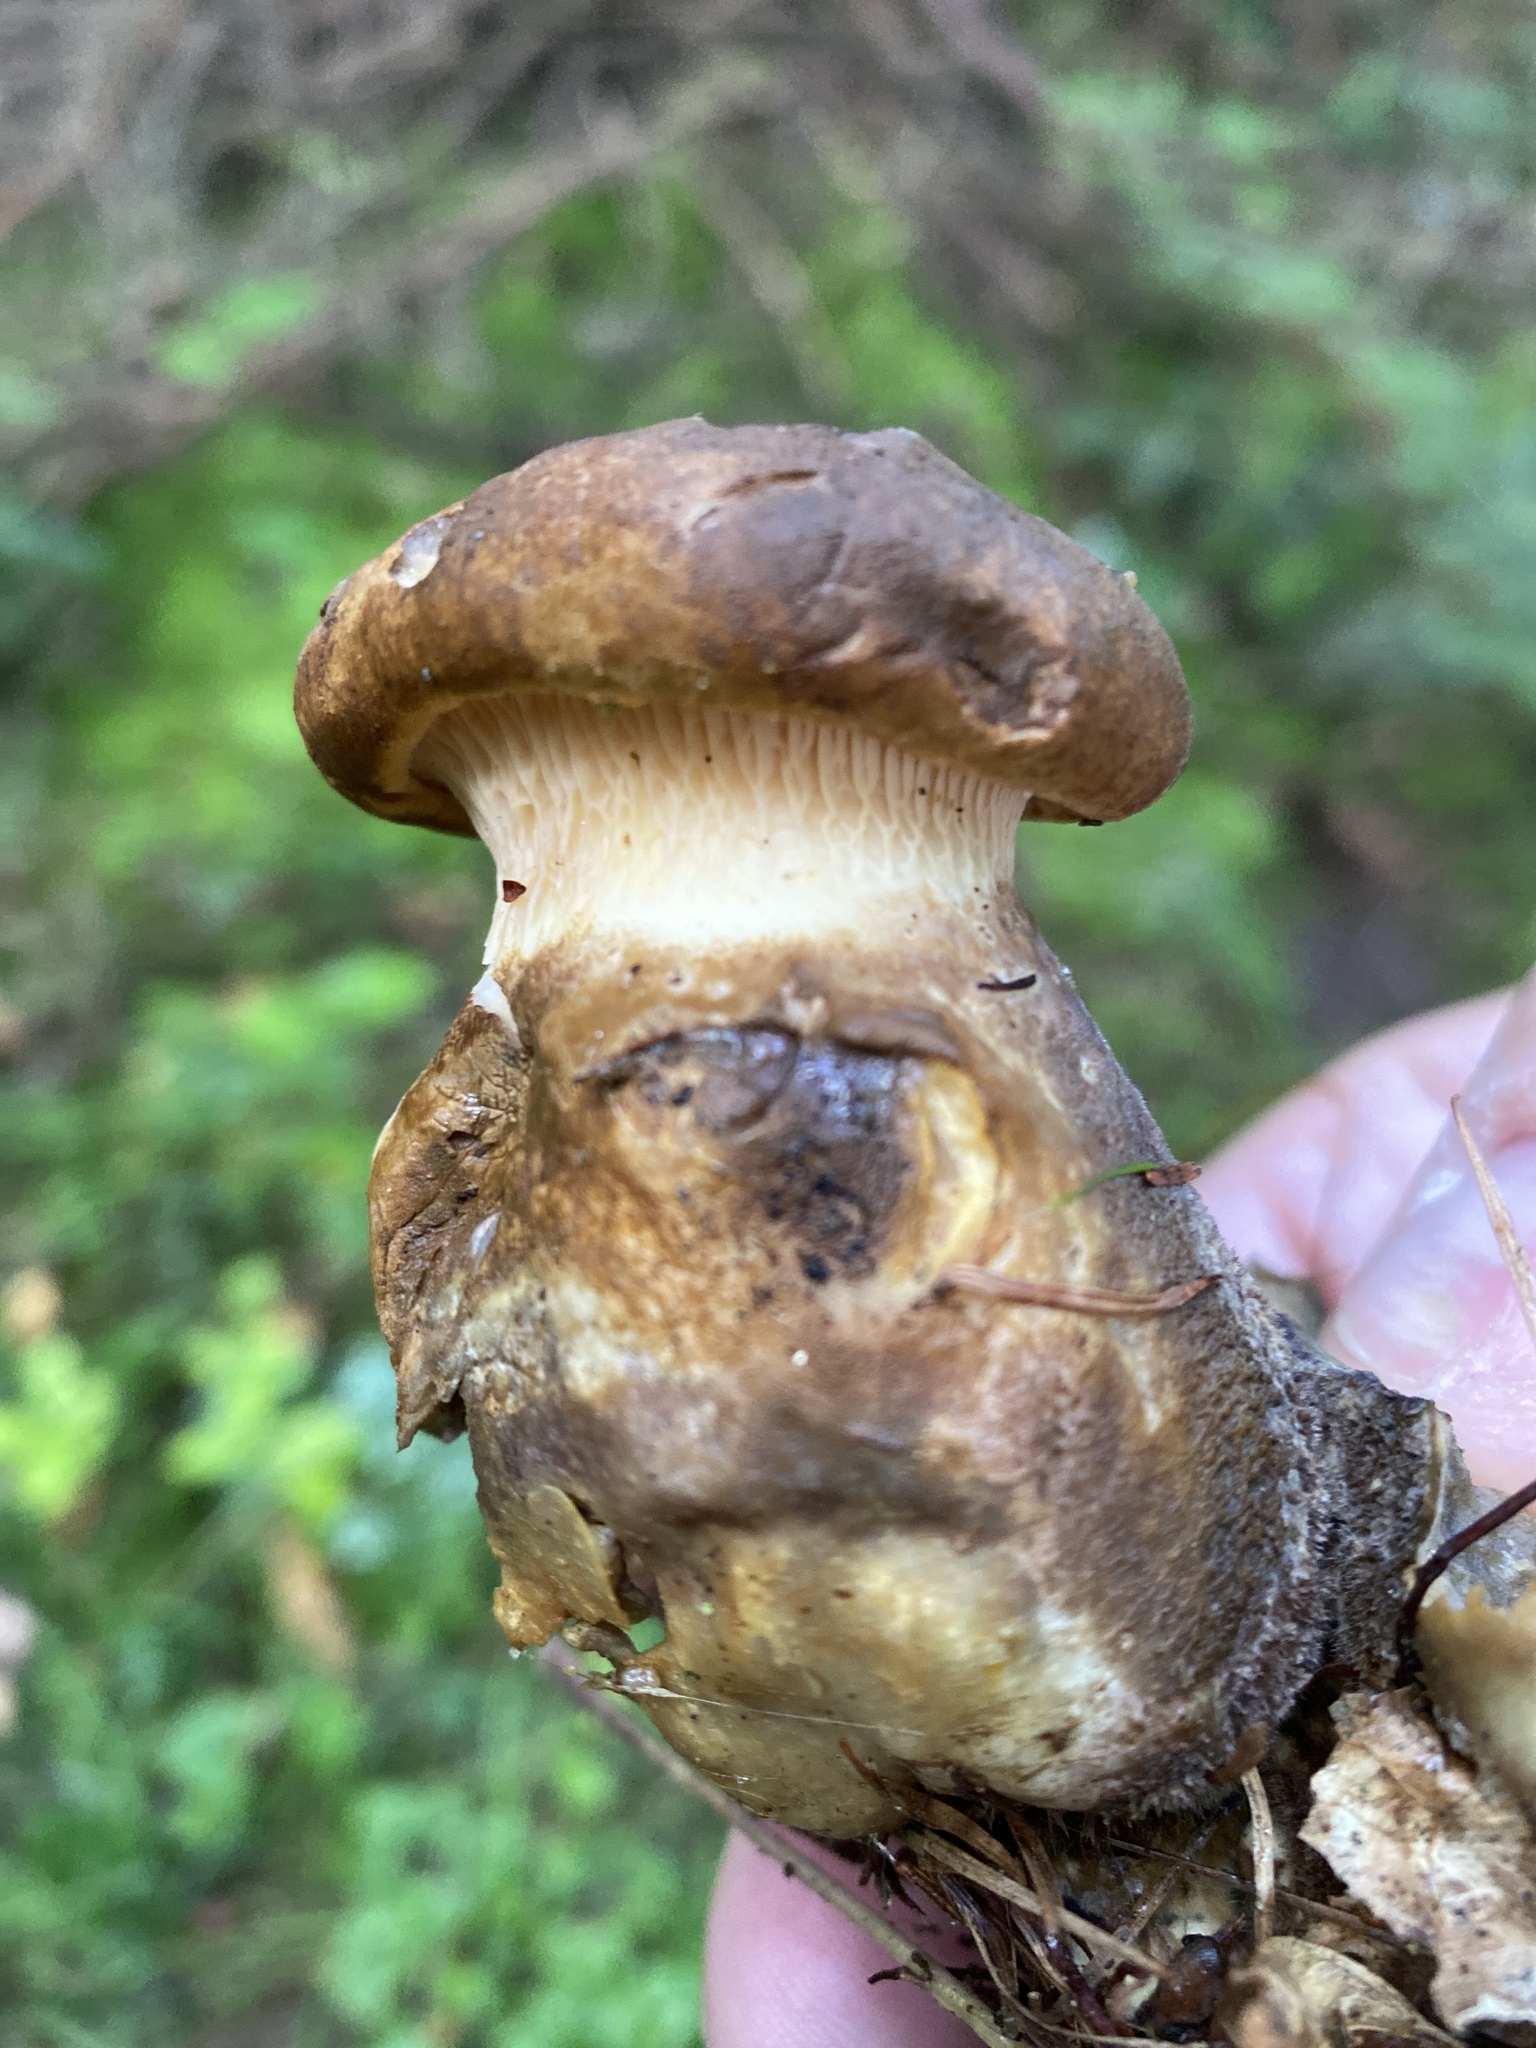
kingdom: Fungi
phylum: Basidiomycota
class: Agaricomycetes
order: Boletales
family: Tapinellaceae
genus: Tapinella
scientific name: Tapinella atrotomentosa
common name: Velvet rollrim
